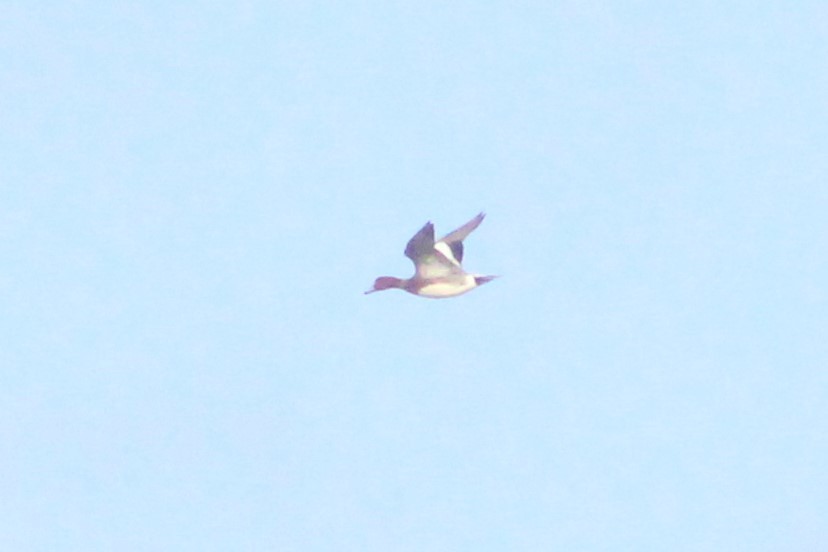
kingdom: Animalia
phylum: Chordata
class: Aves
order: Anseriformes
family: Anatidae
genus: Mareca
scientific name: Mareca penelope
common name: Eurasian wigeon
